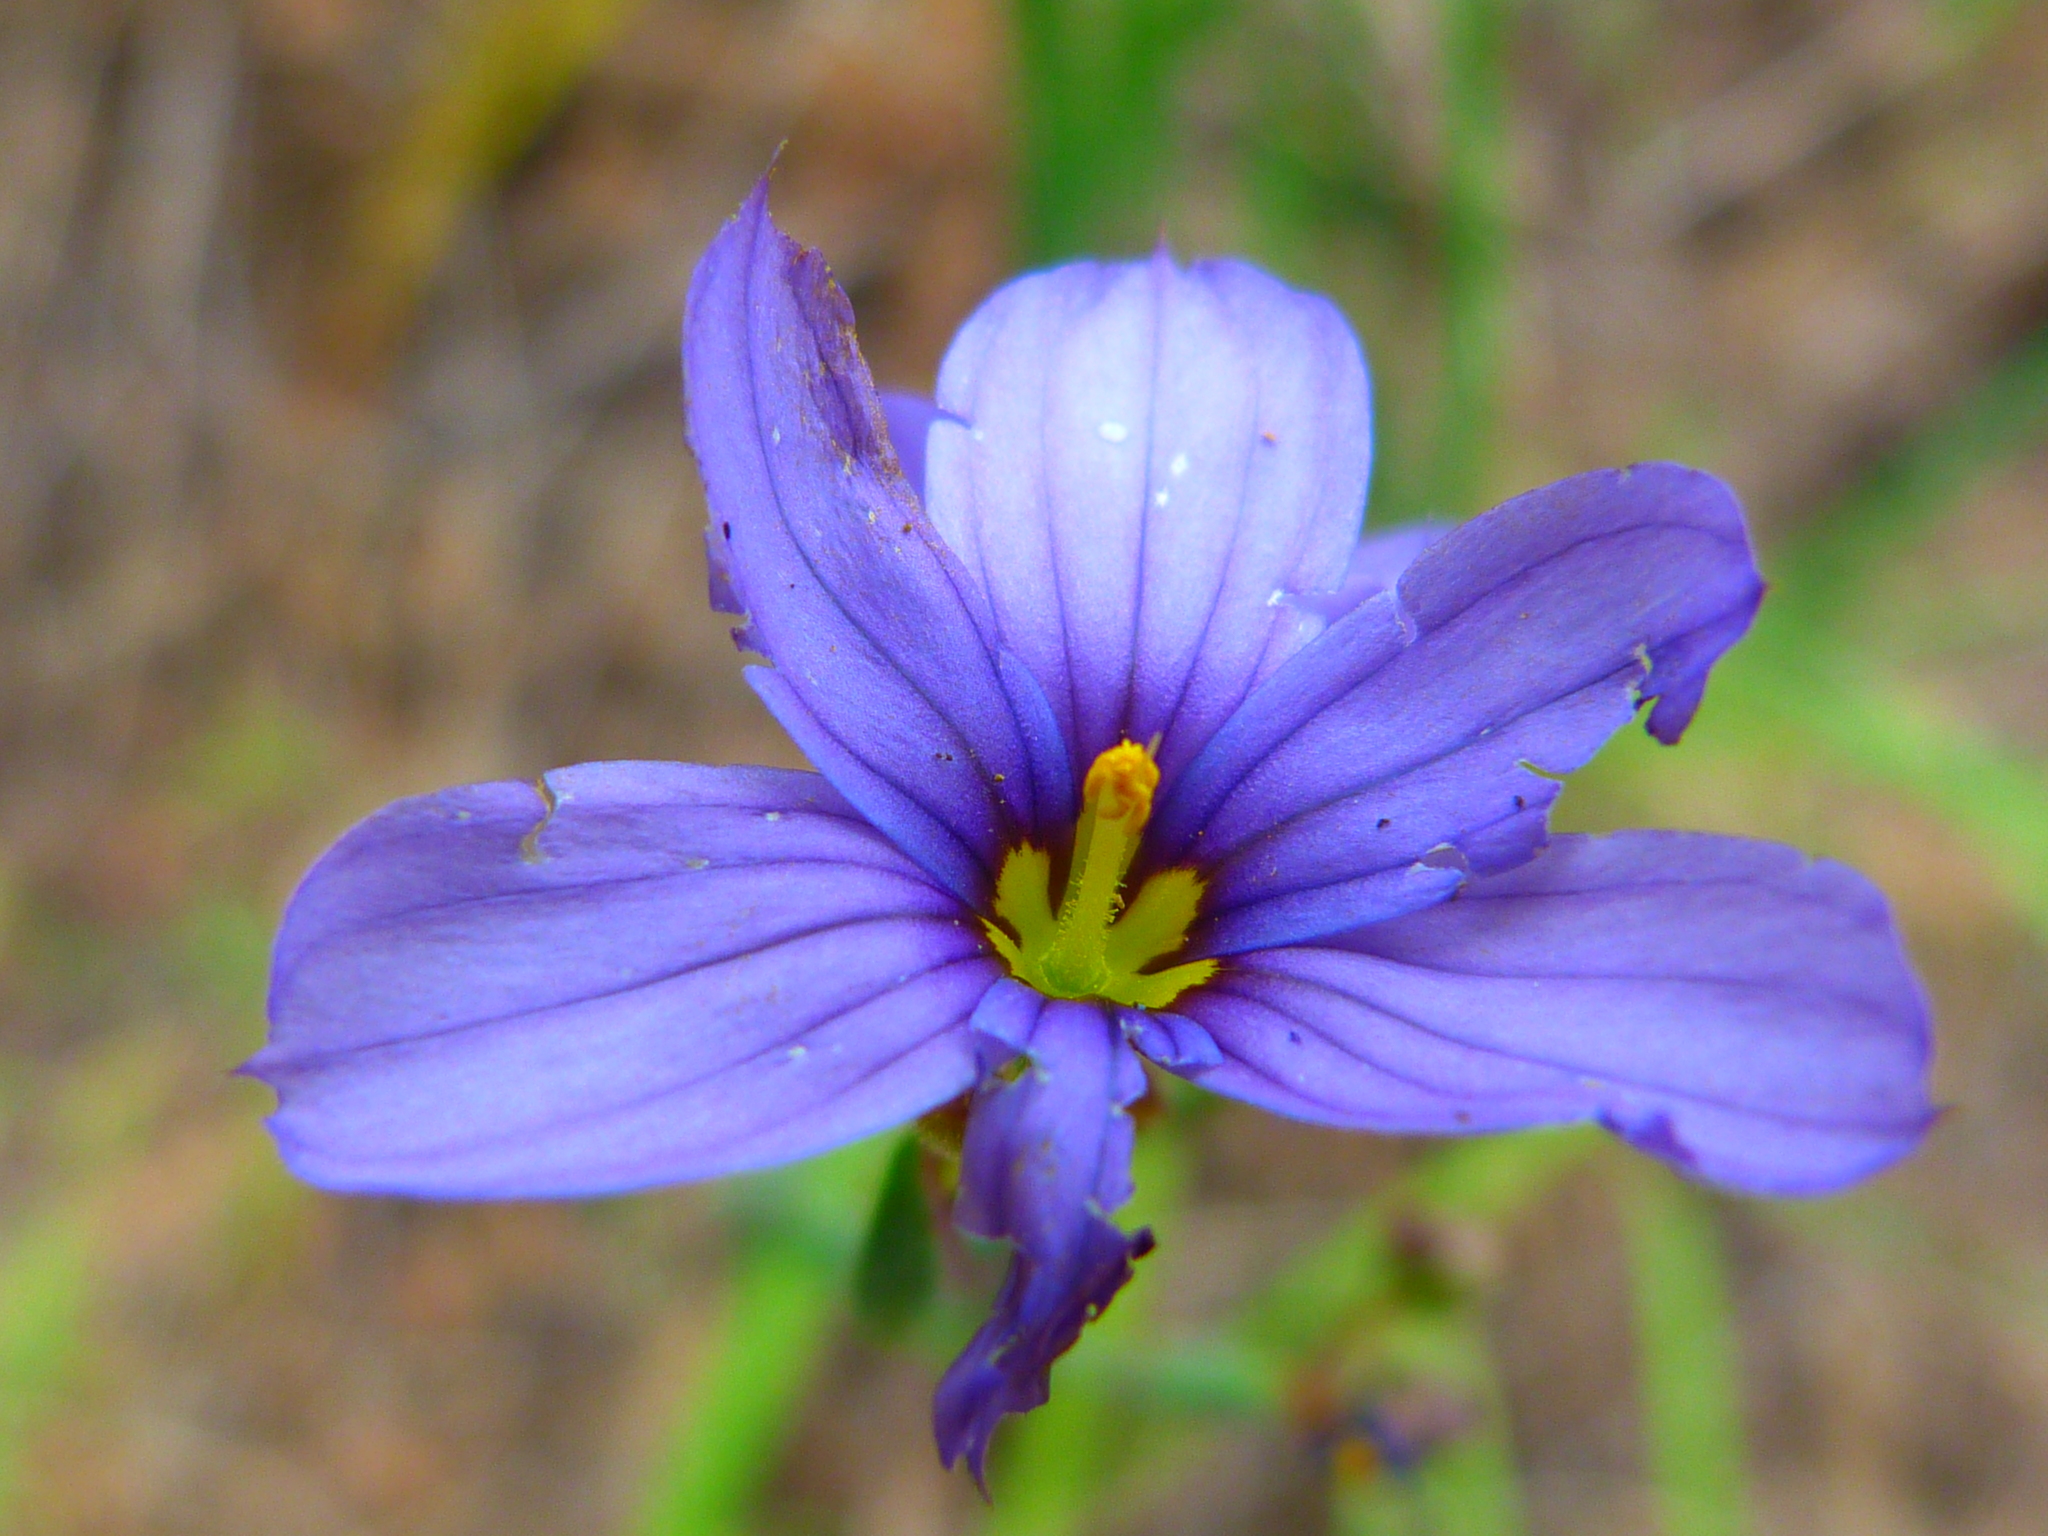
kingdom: Plantae
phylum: Tracheophyta
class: Liliopsida
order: Asparagales
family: Iridaceae
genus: Sisyrinchium
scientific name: Sisyrinchium bellum
